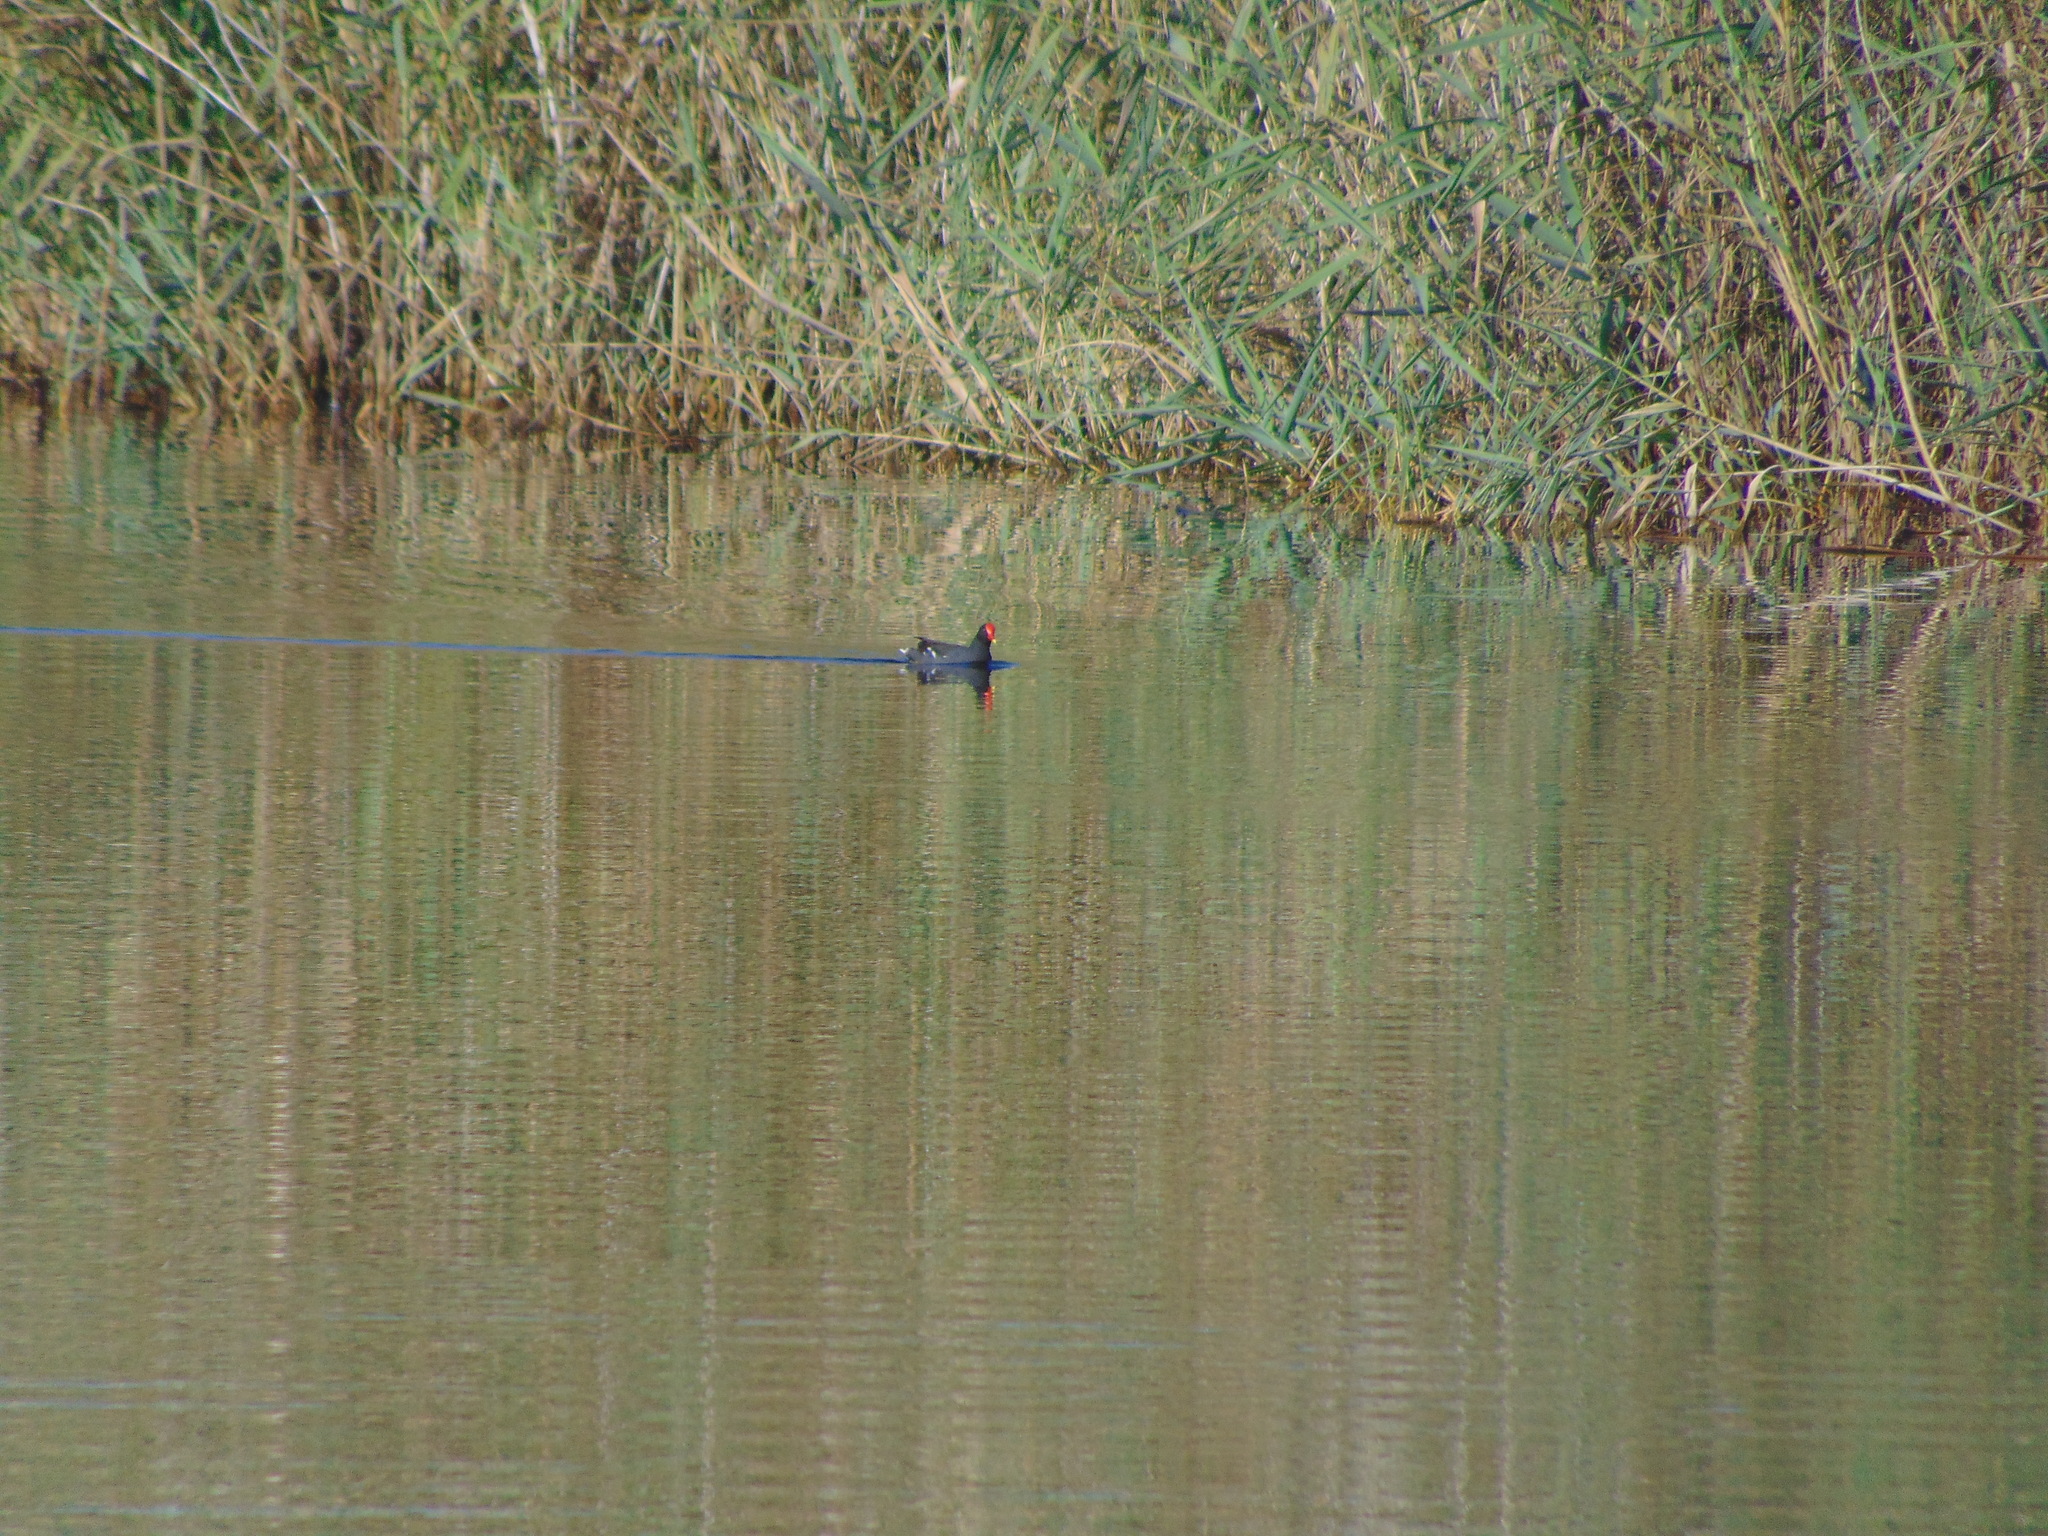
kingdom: Animalia
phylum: Chordata
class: Aves
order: Gruiformes
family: Rallidae
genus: Gallinula
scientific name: Gallinula chloropus
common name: Common moorhen
